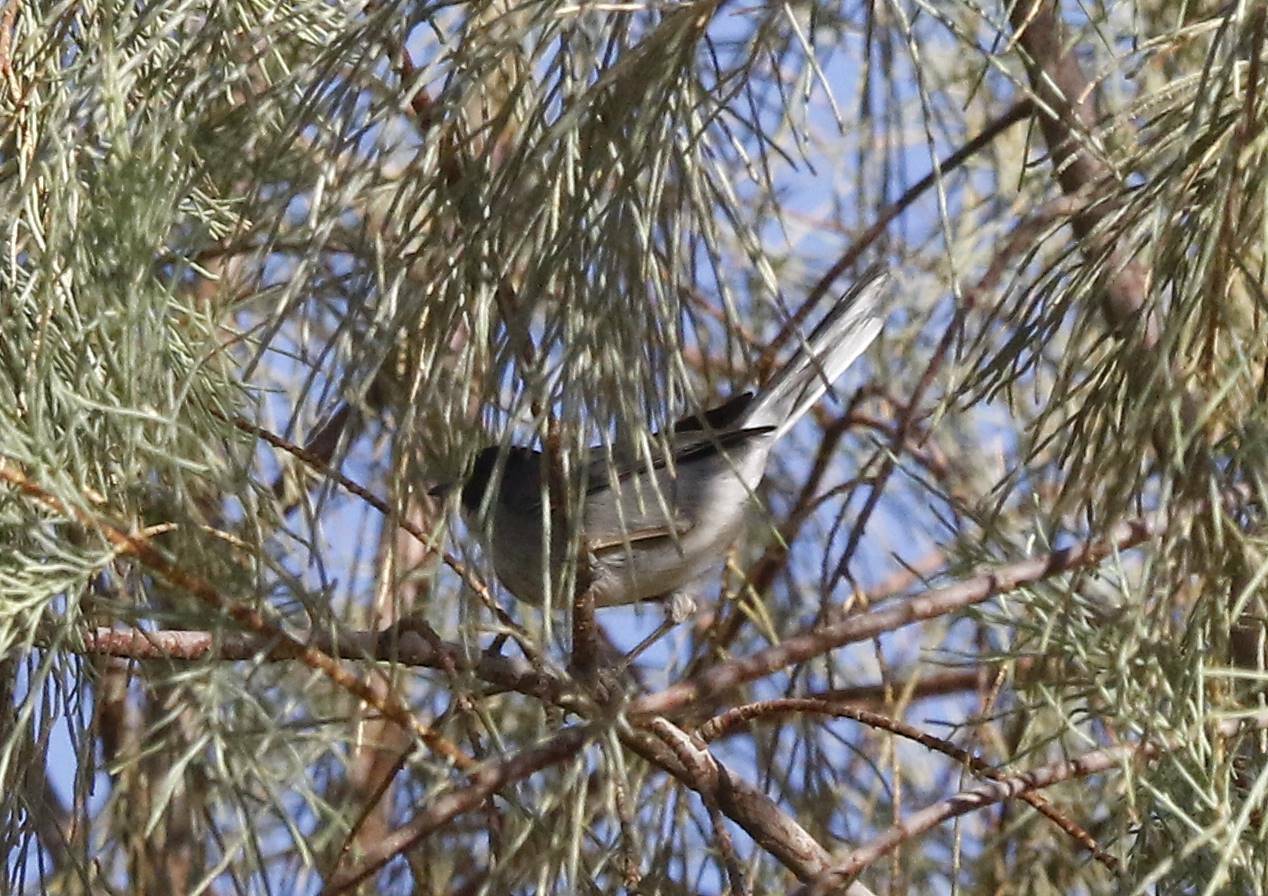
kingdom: Animalia
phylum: Chordata
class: Aves
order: Passeriformes
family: Sylviidae
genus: Curruca
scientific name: Curruca melanocephala
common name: Sardinian warbler
